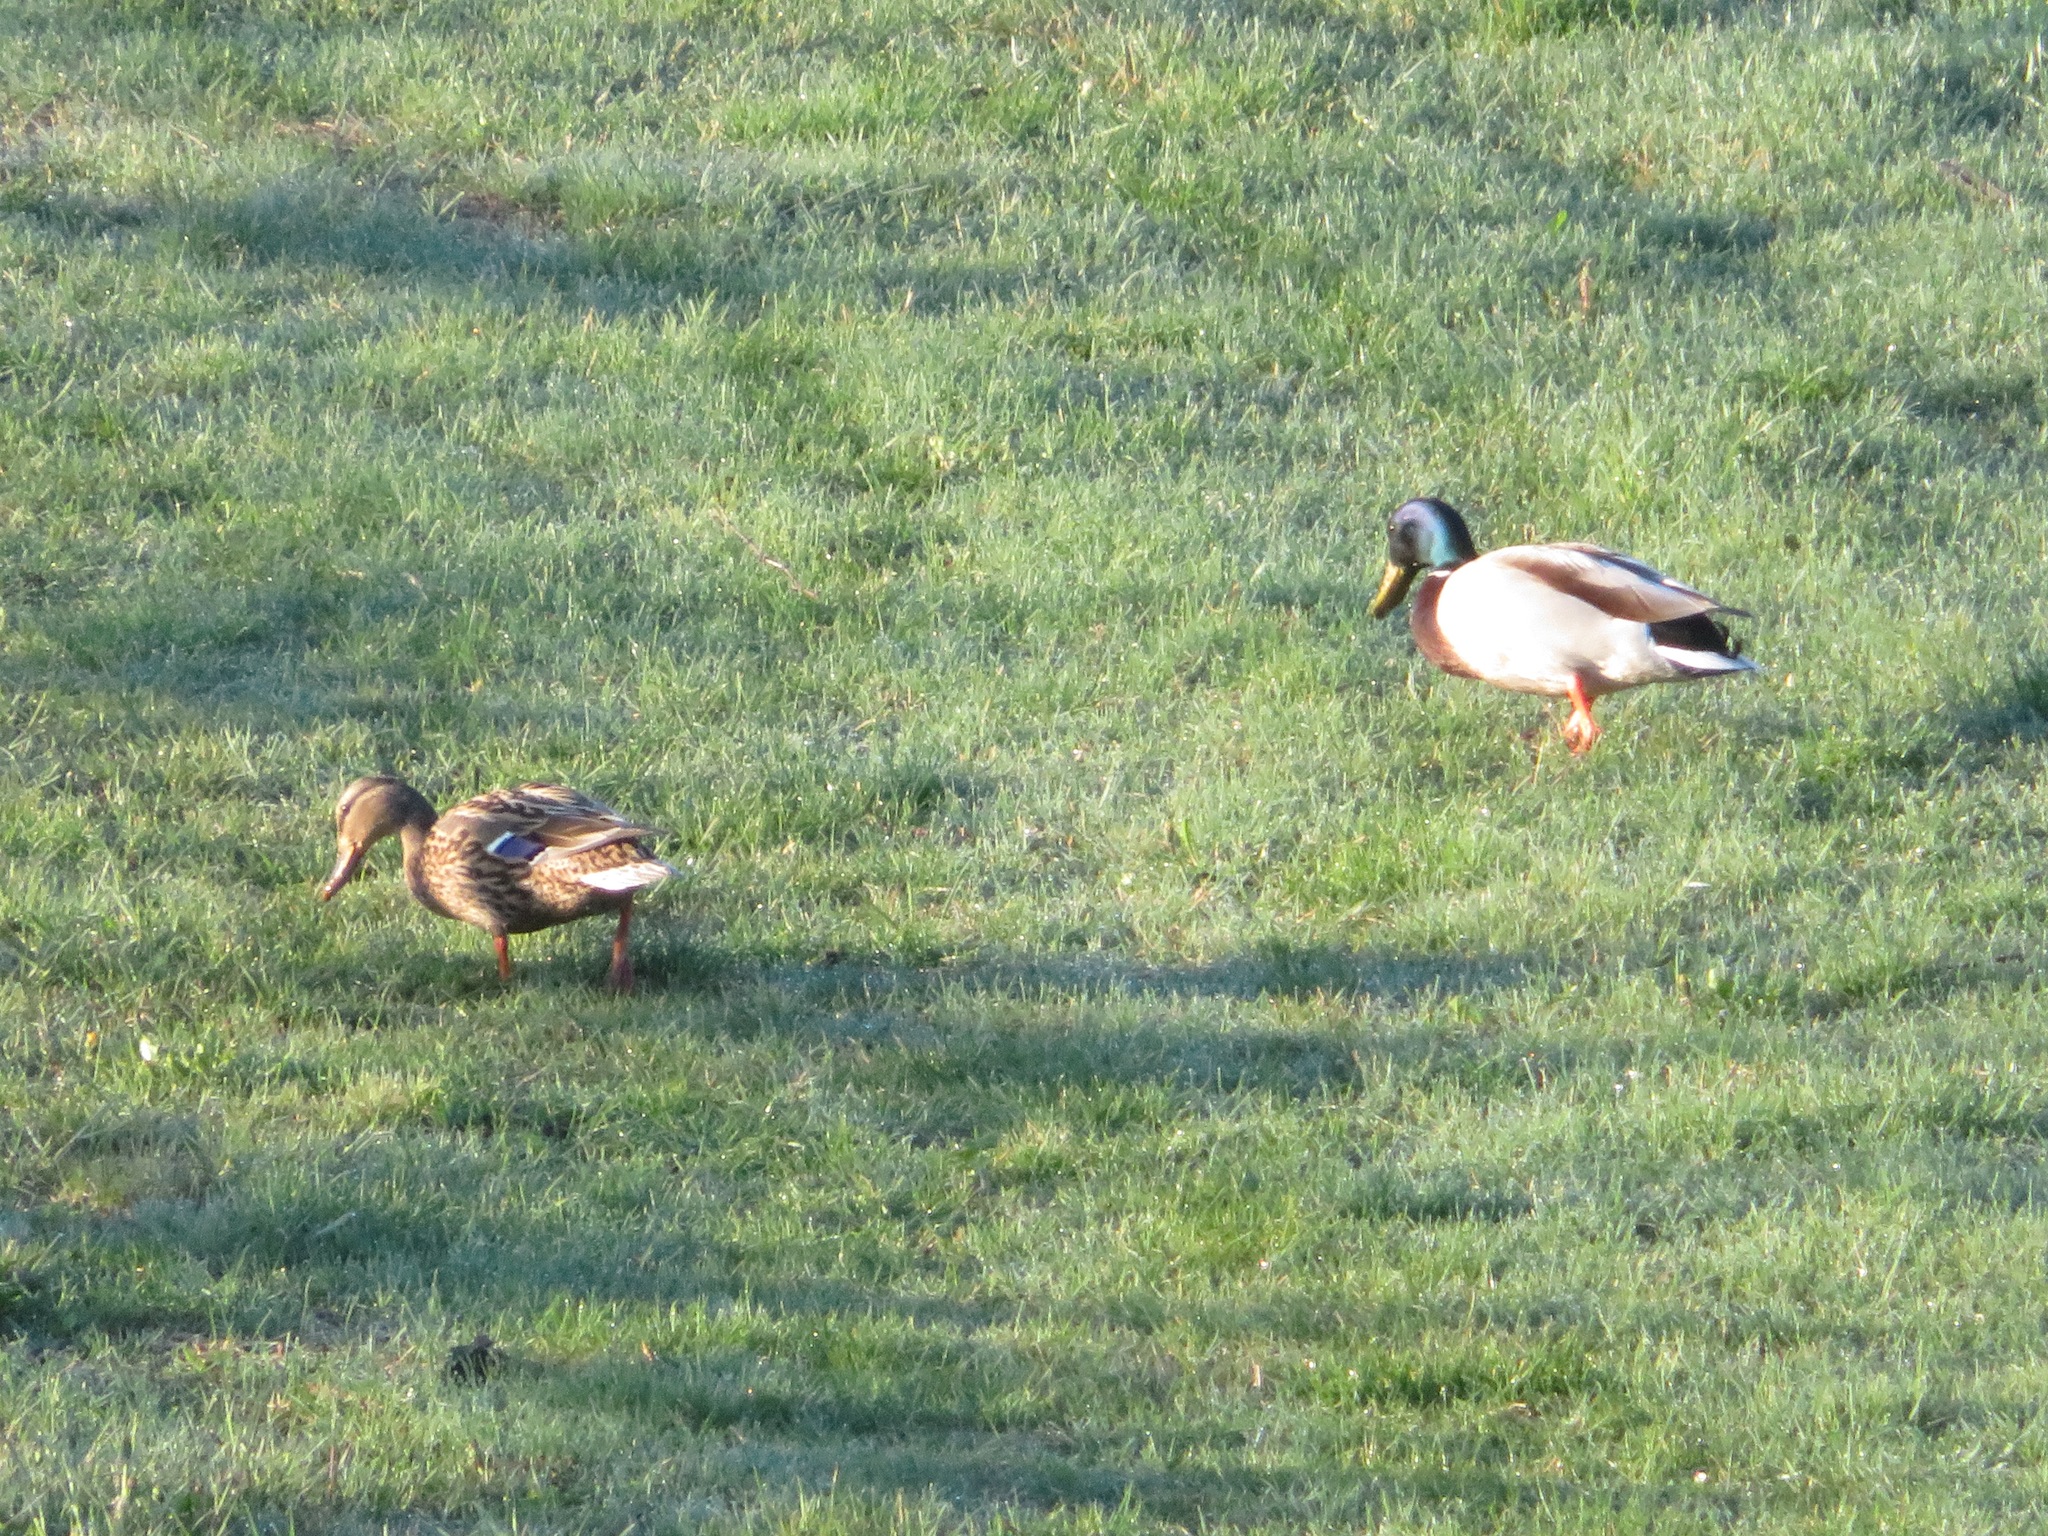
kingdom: Animalia
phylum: Chordata
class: Aves
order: Anseriformes
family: Anatidae
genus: Anas
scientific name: Anas platyrhynchos
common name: Mallard
